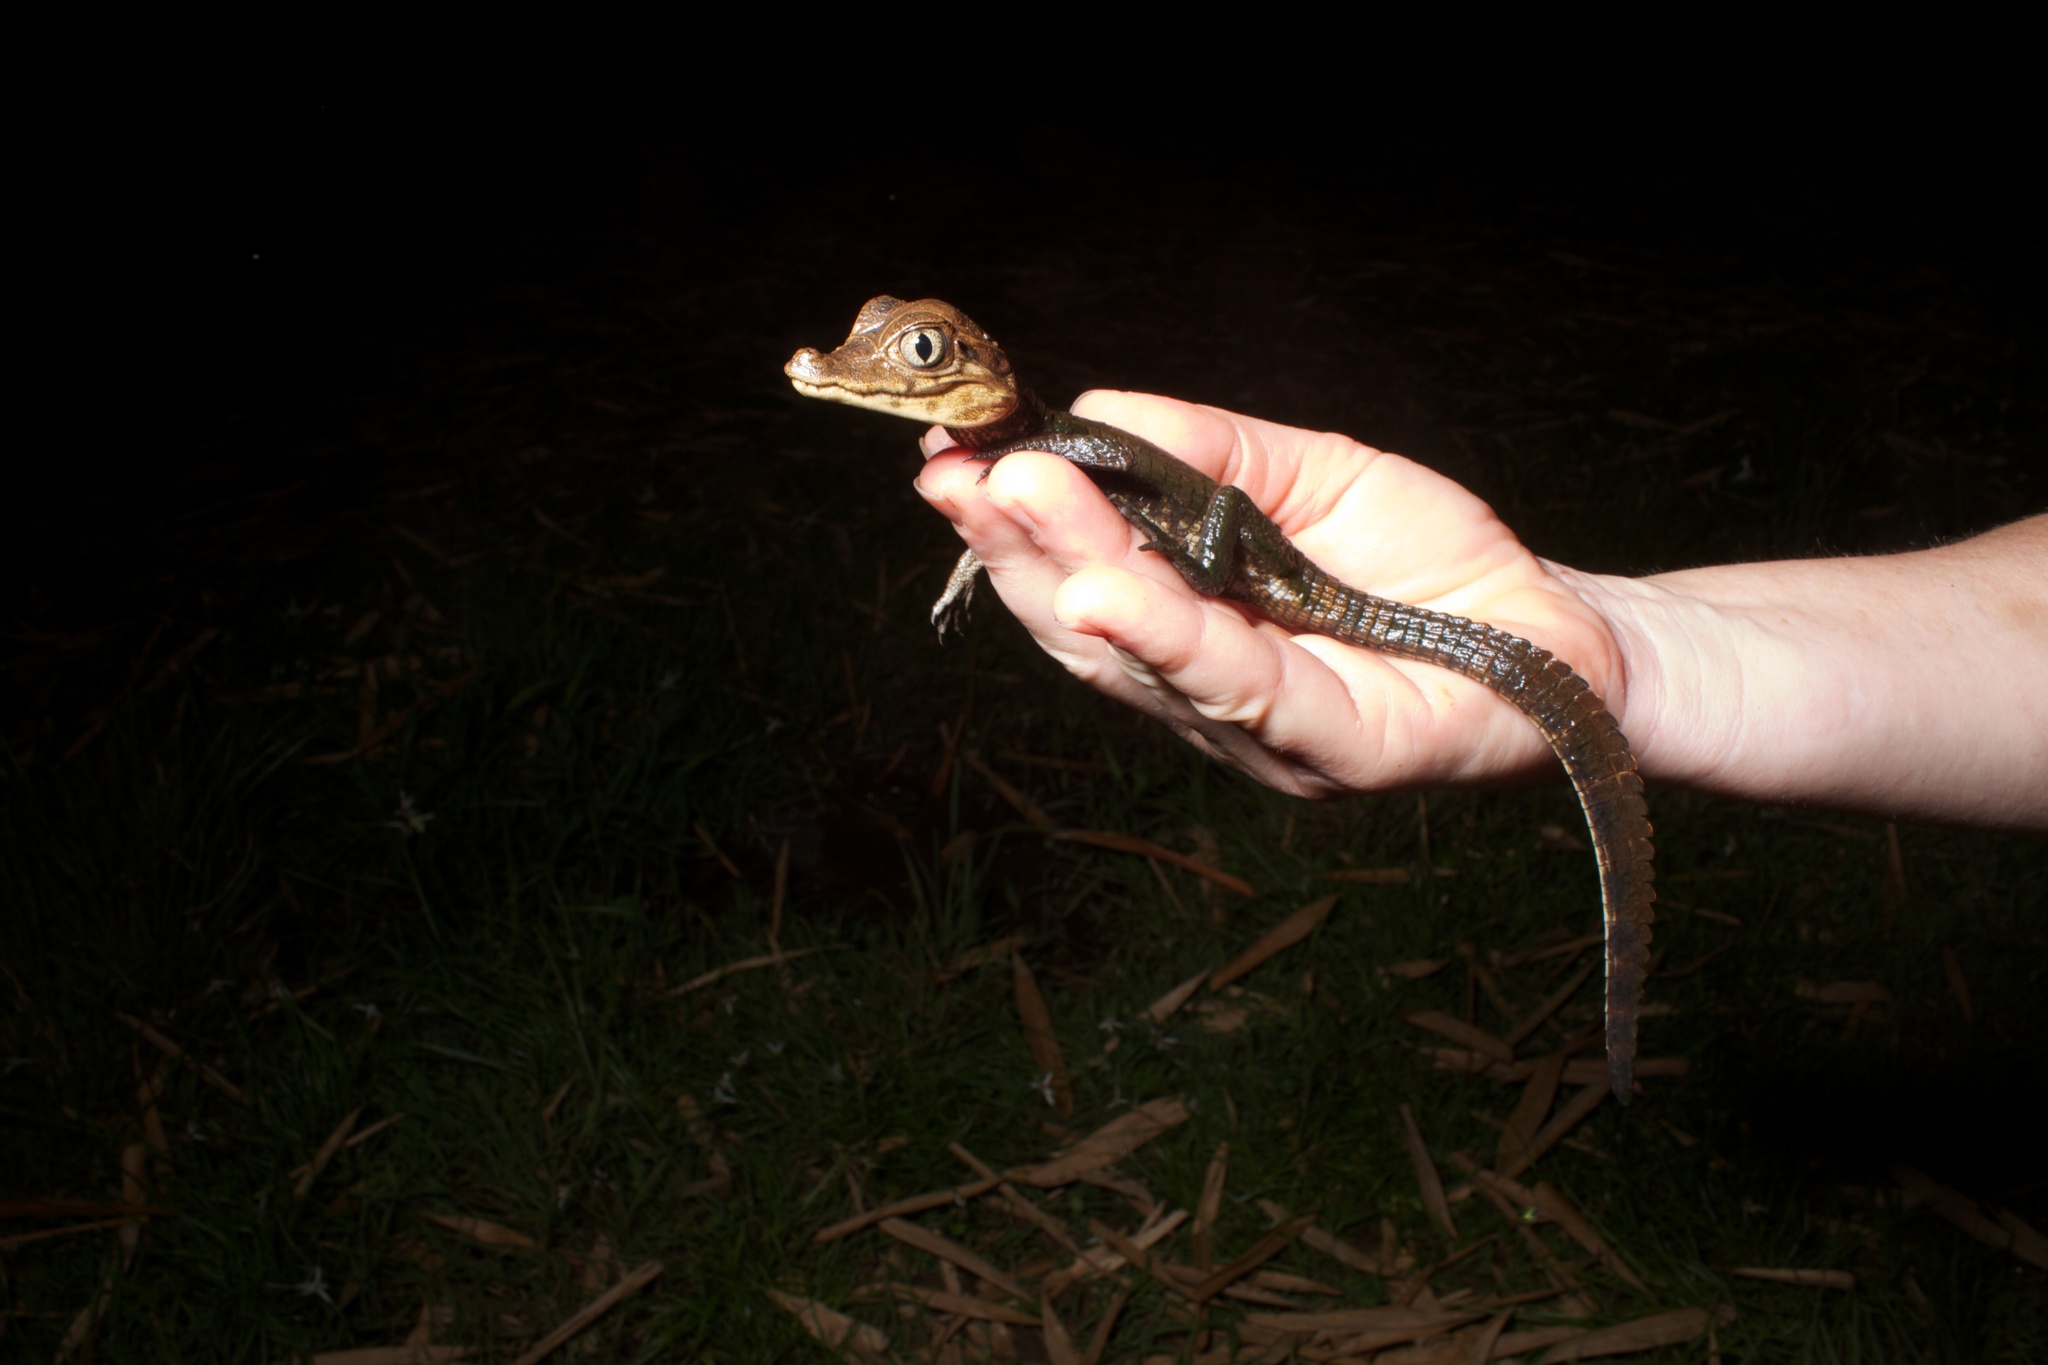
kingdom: Animalia
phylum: Chordata
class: Crocodylia
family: Alligatoridae
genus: Caiman
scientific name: Caiman crocodilus
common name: Common caiman
